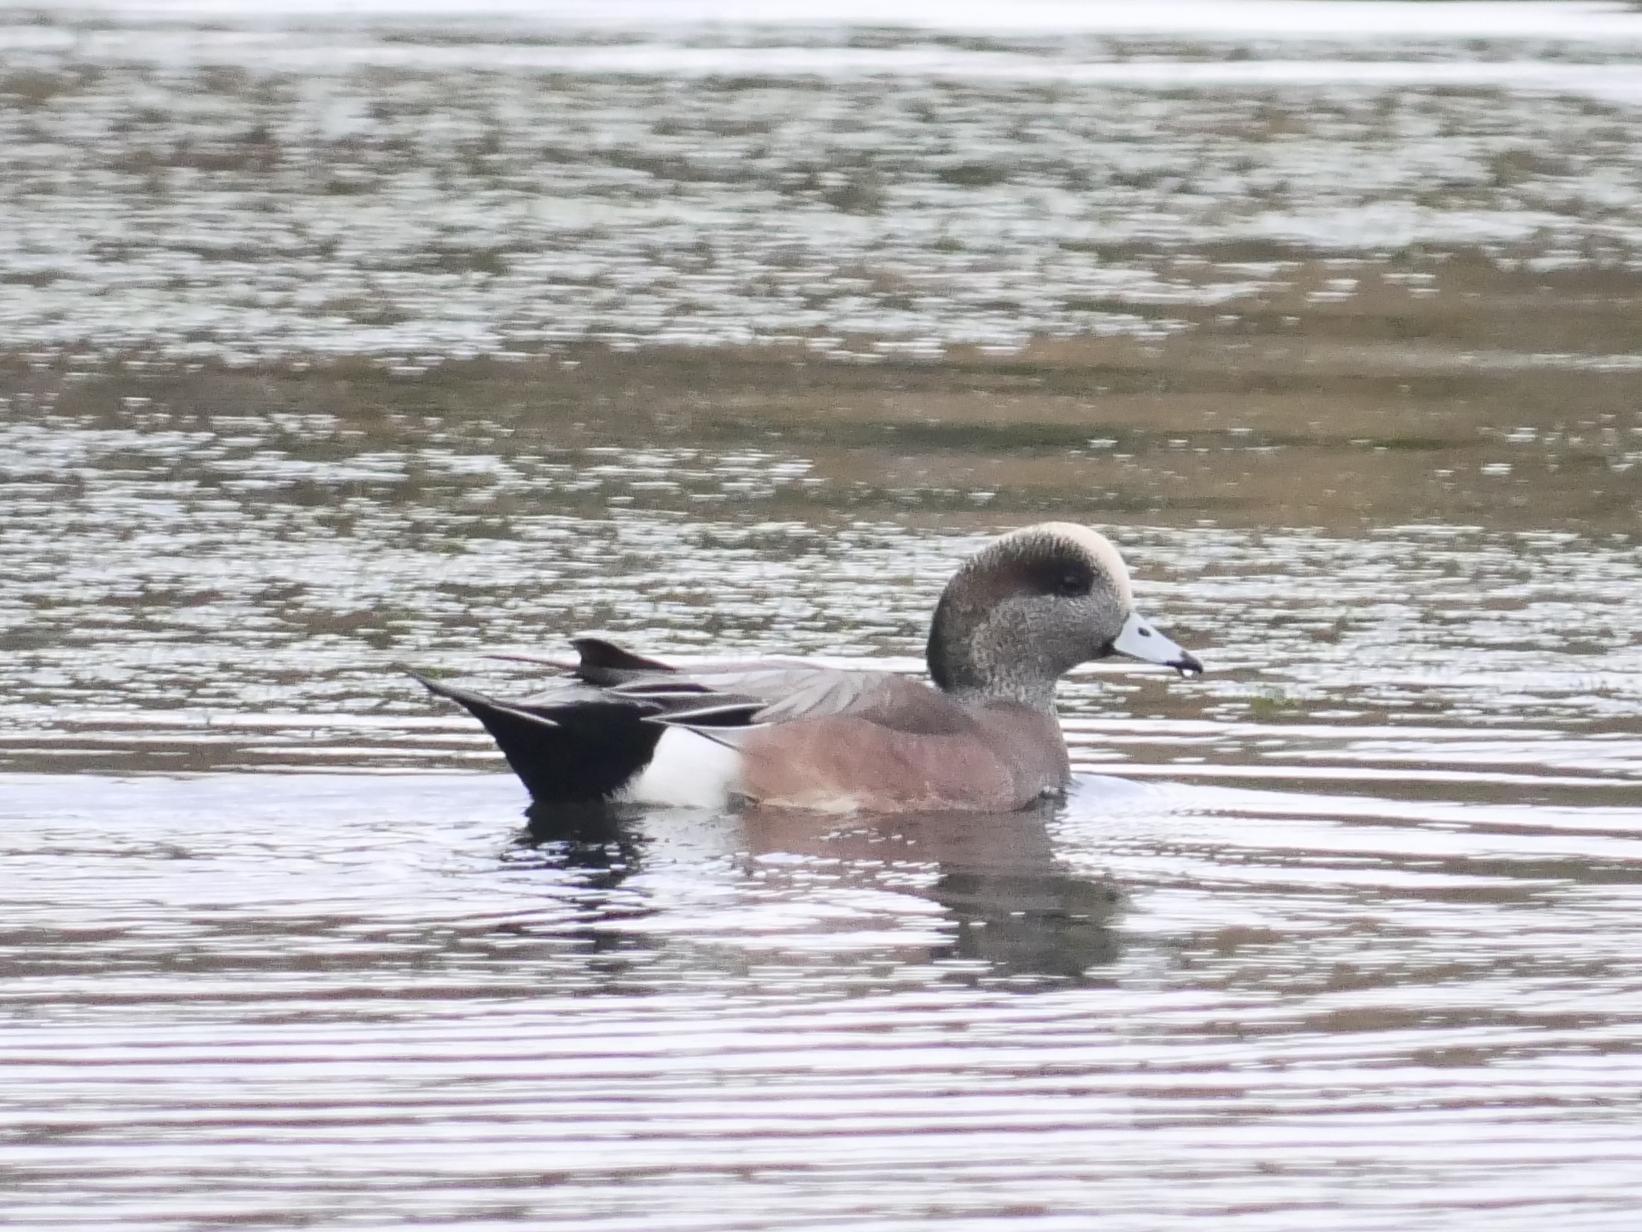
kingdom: Animalia
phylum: Chordata
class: Aves
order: Anseriformes
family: Anatidae
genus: Mareca
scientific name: Mareca americana
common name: American wigeon
